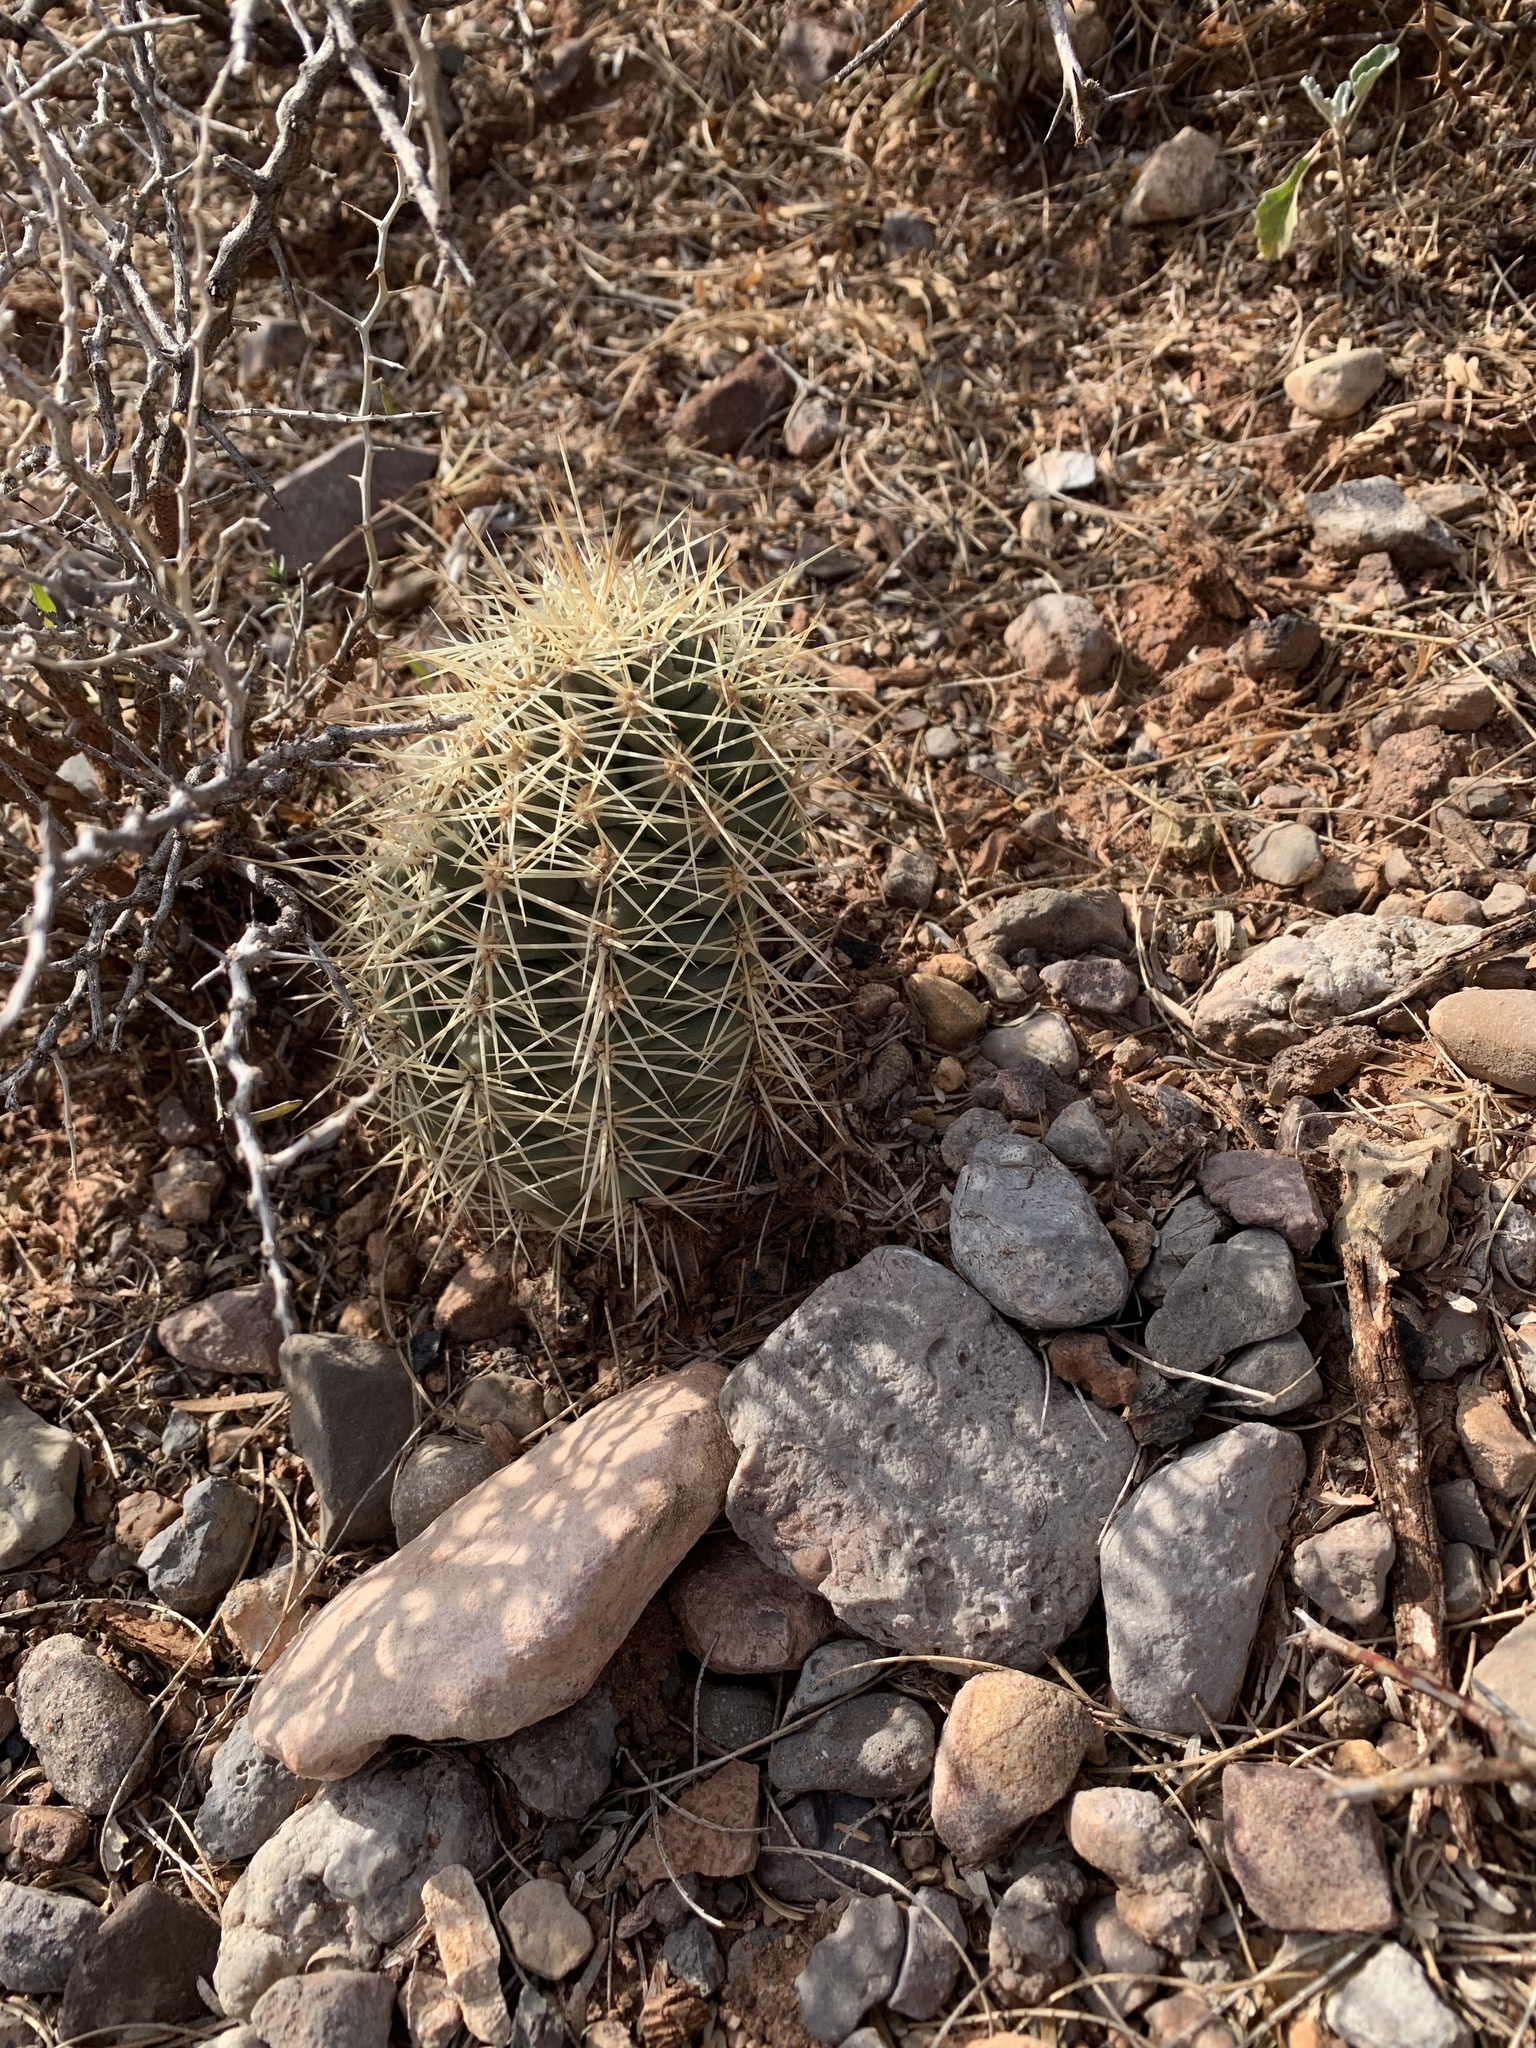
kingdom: Plantae
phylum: Tracheophyta
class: Magnoliopsida
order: Caryophyllales
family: Cactaceae
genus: Echinocereus
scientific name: Echinocereus coccineus
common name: Scarlet hedgehog cactus
